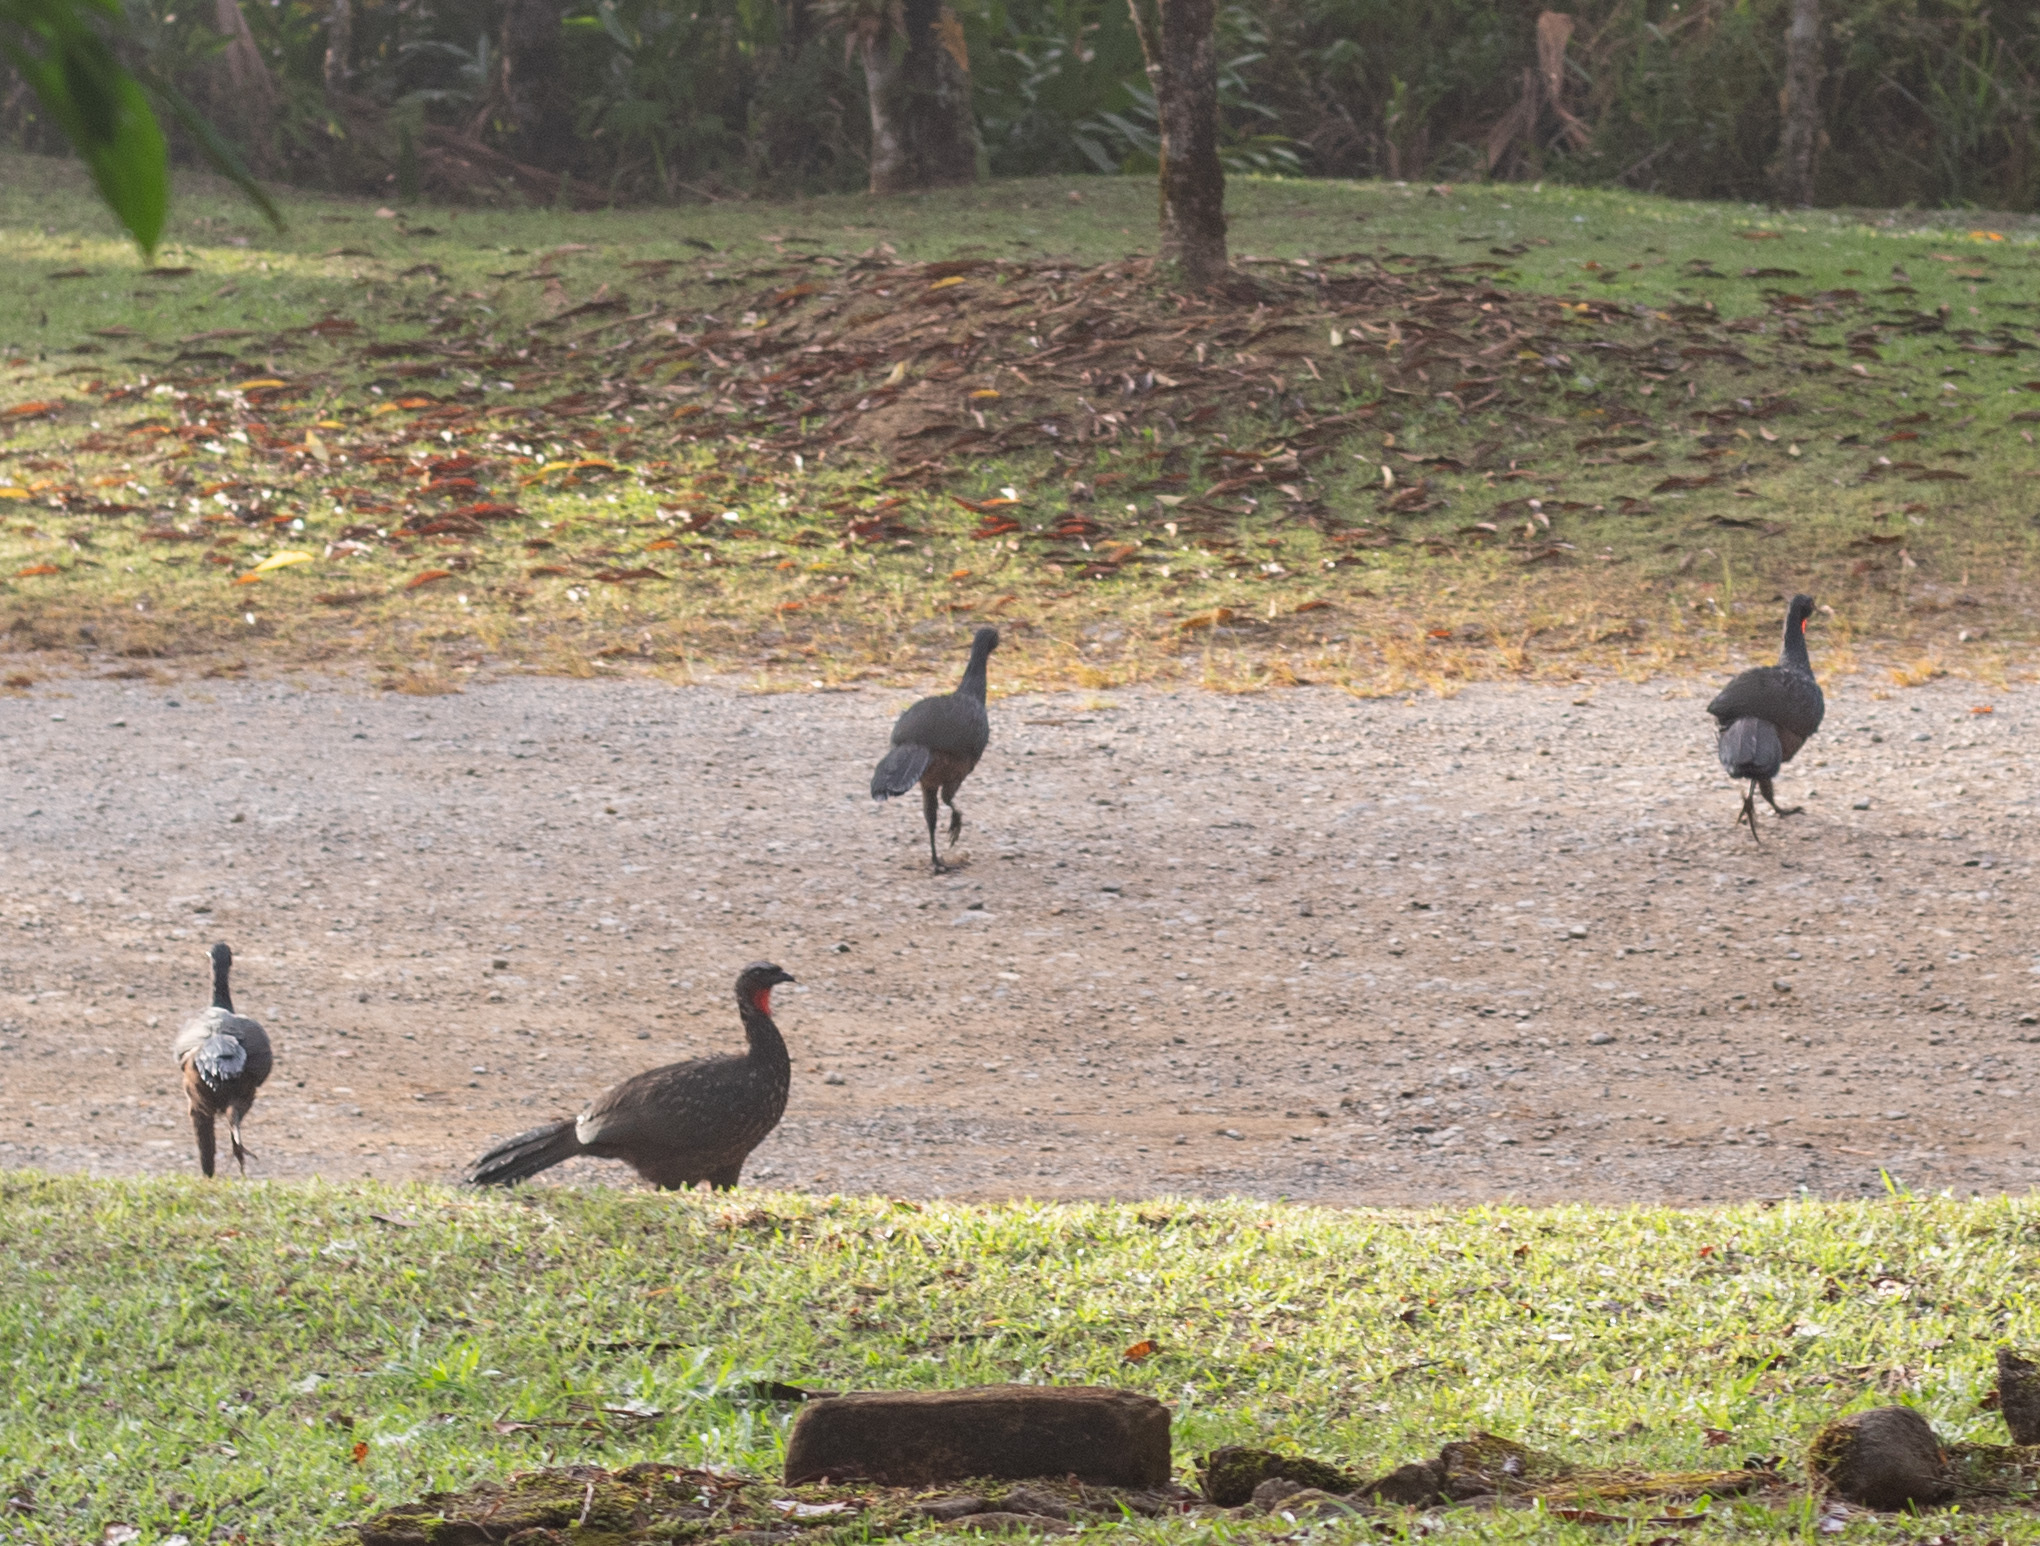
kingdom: Animalia
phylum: Chordata
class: Aves
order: Galliformes
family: Cracidae
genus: Penelope
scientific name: Penelope obscura
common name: Dusky-legged guan
